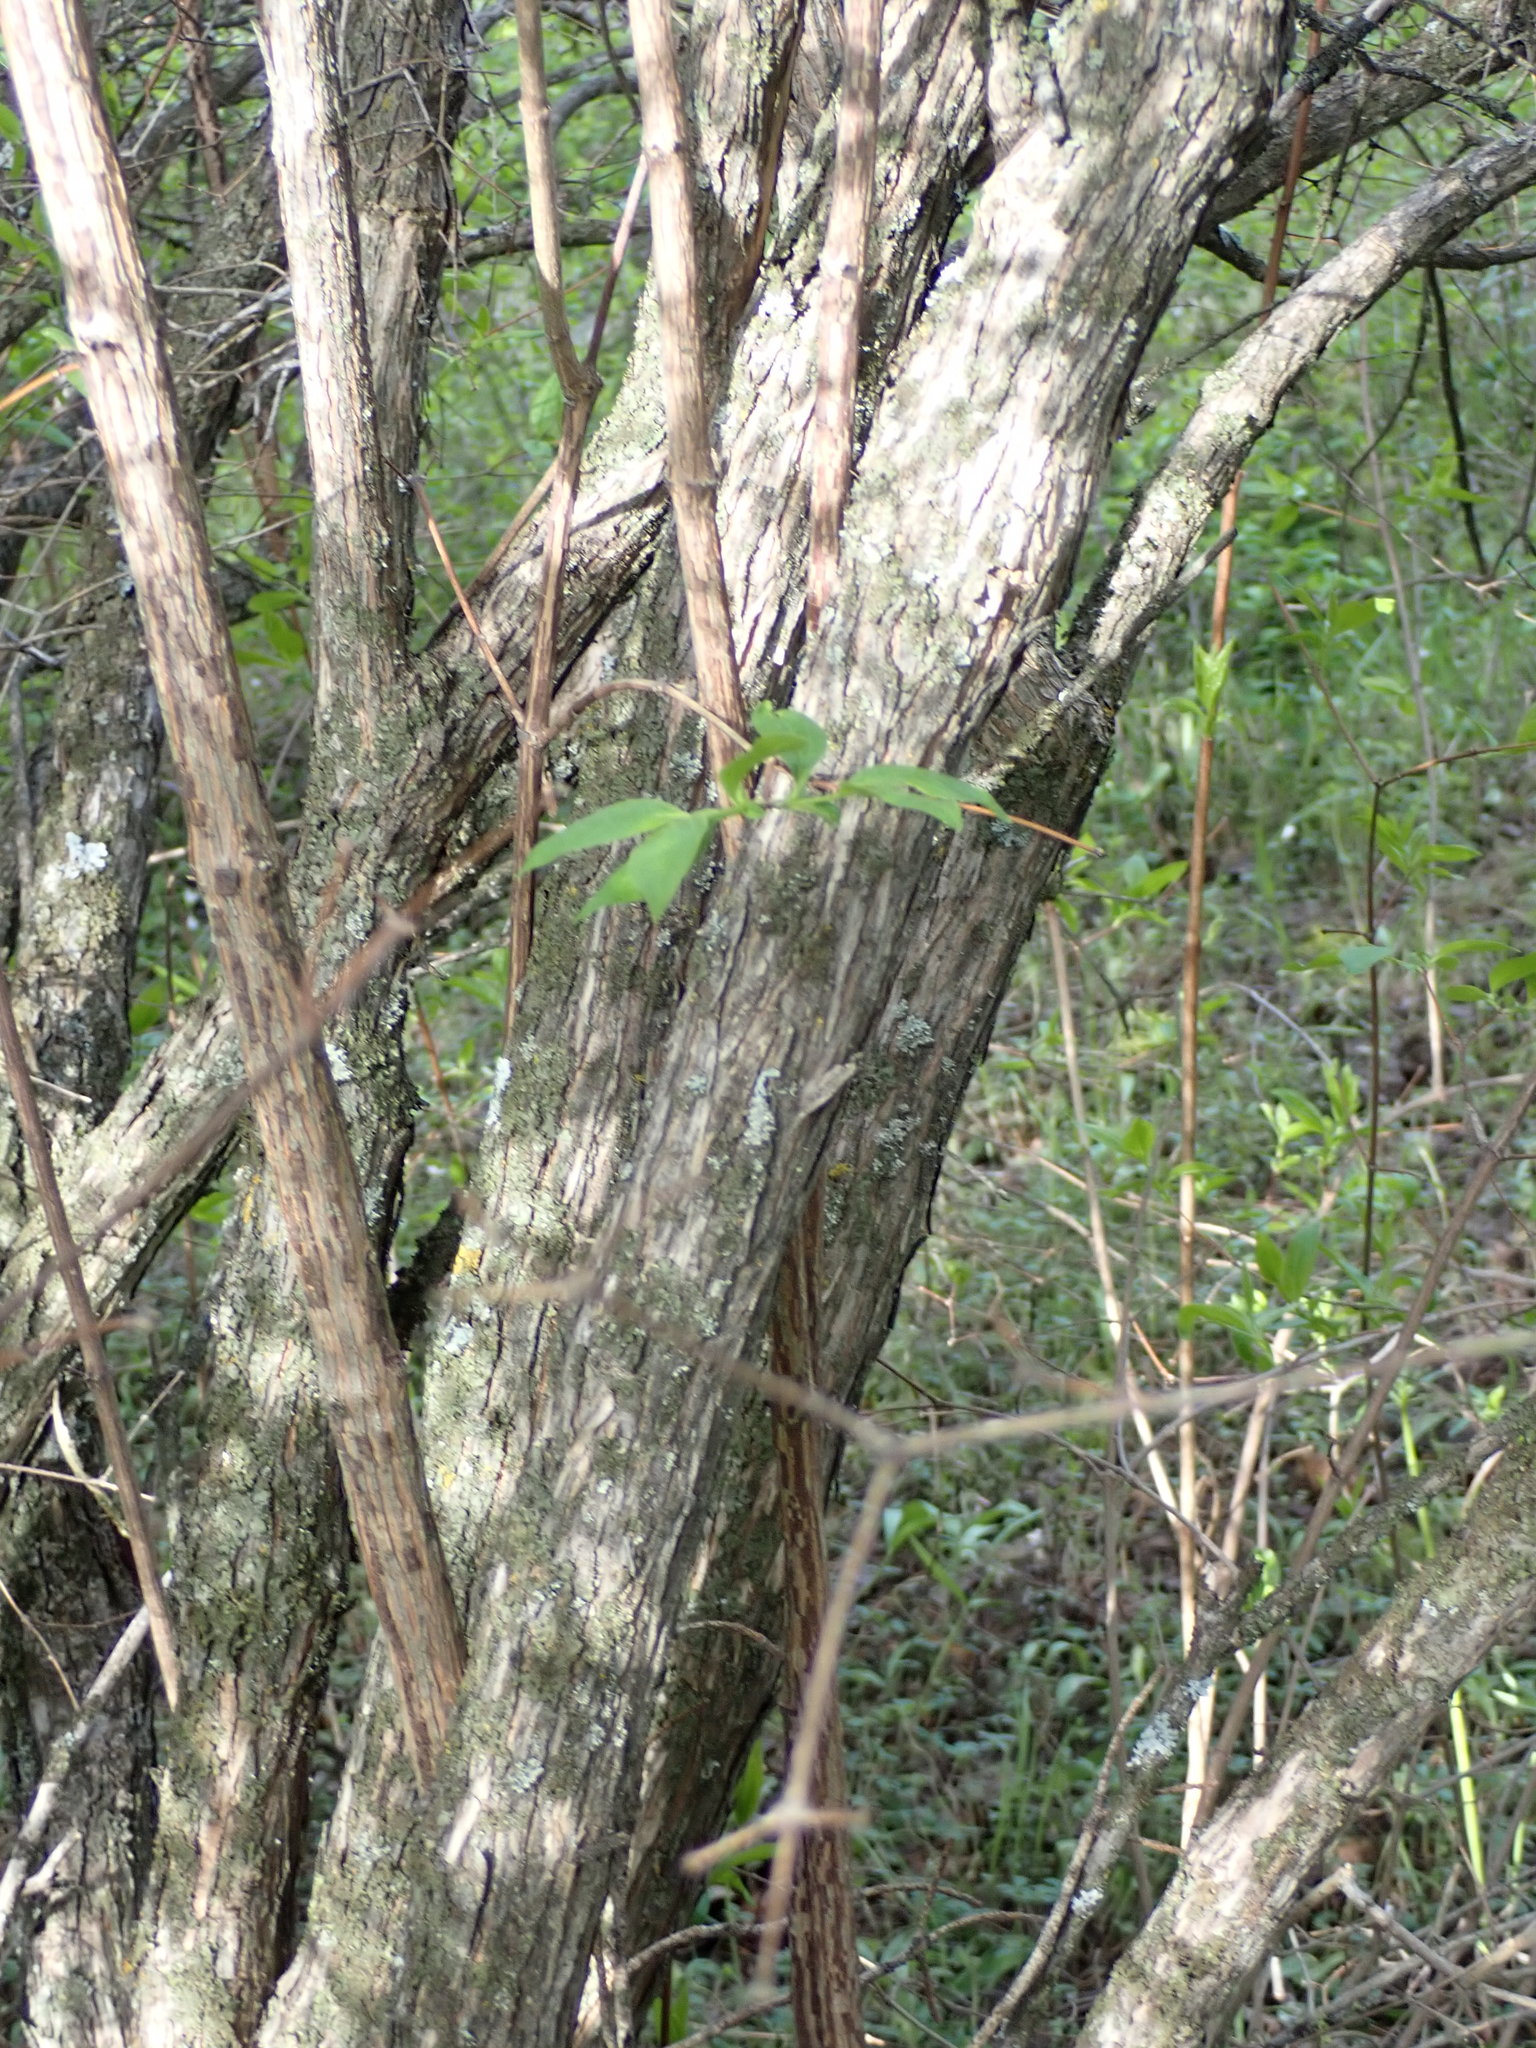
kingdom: Plantae
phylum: Tracheophyta
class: Magnoliopsida
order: Cornales
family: Hydrangeaceae
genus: Philadelphus
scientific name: Philadelphus lewisii
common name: Lewis's mock orange
